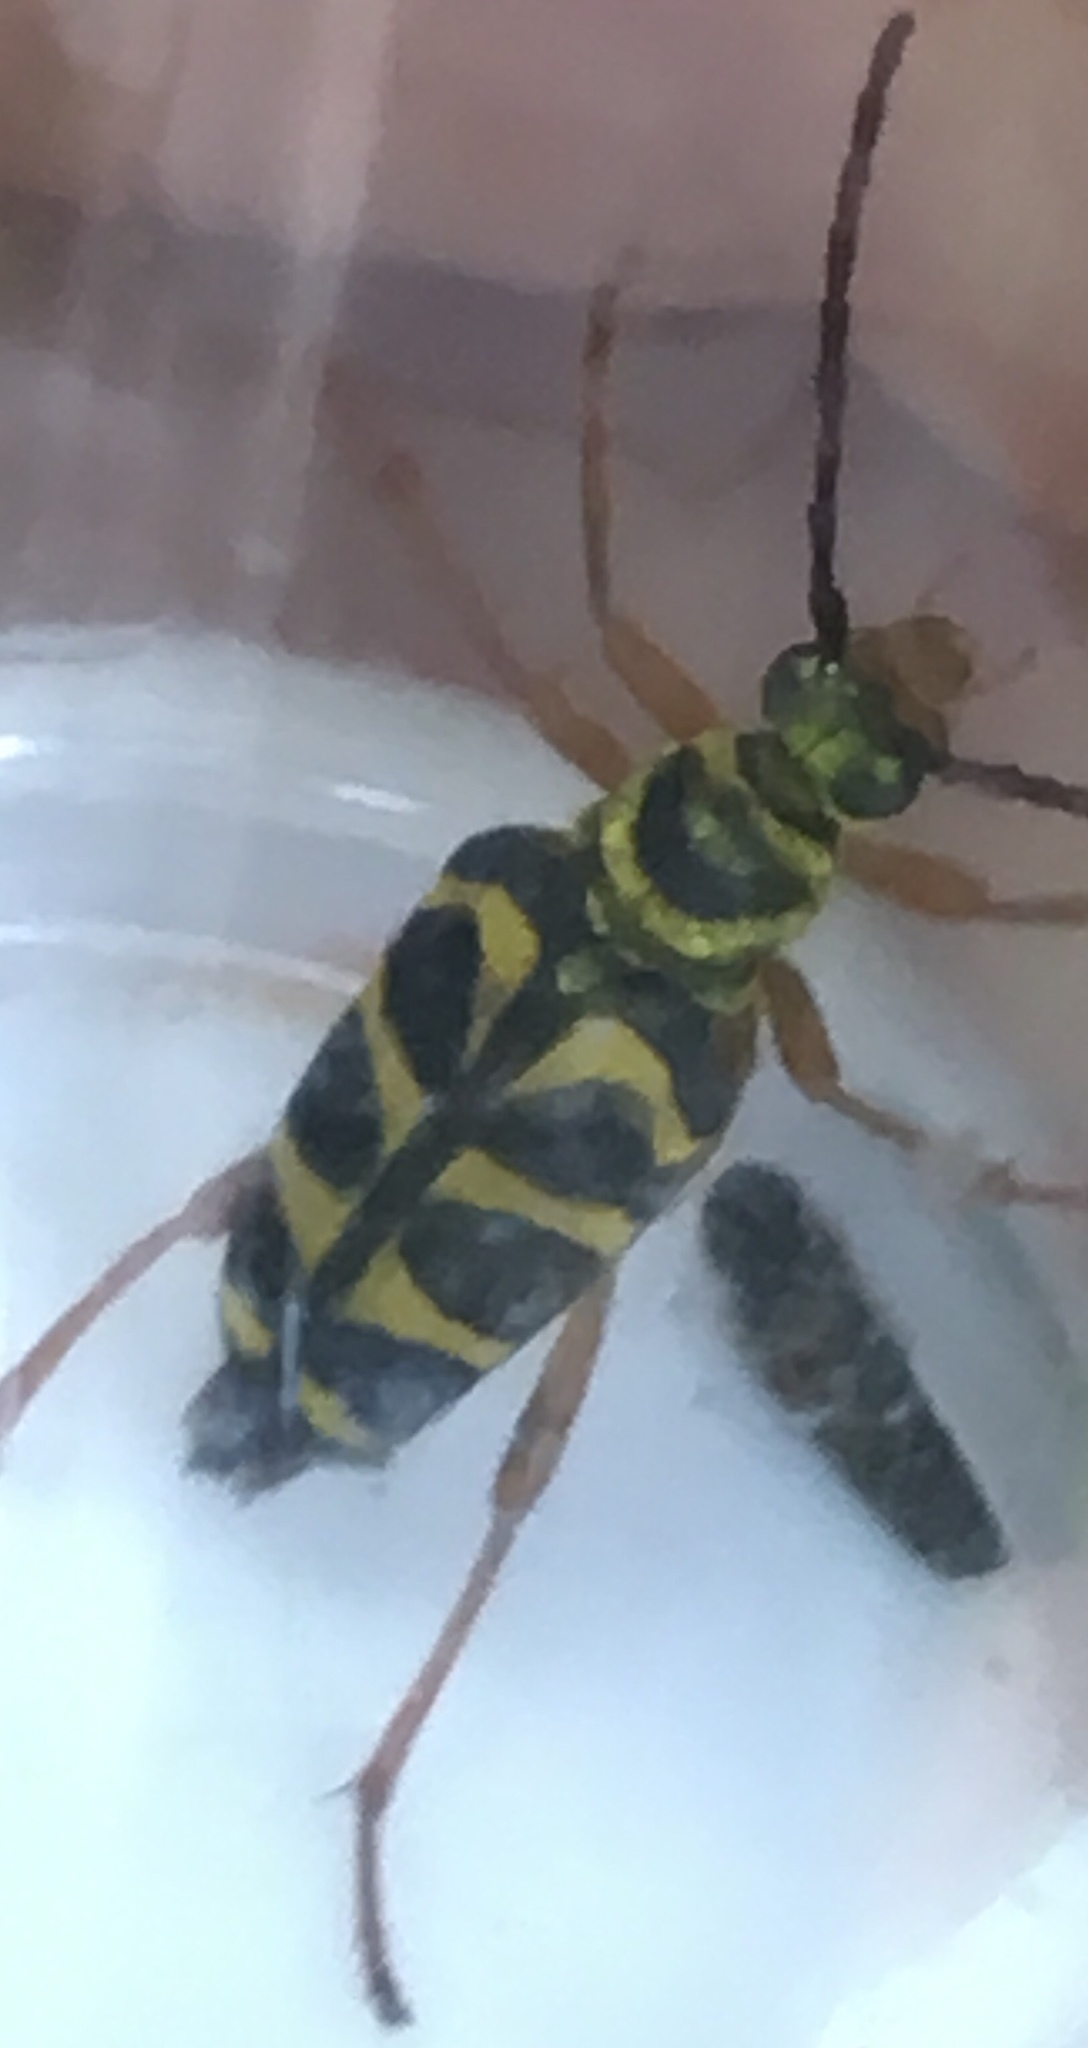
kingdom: Animalia
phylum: Arthropoda
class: Insecta
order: Coleoptera
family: Cerambycidae
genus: Strophiona
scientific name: Strophiona nitens
